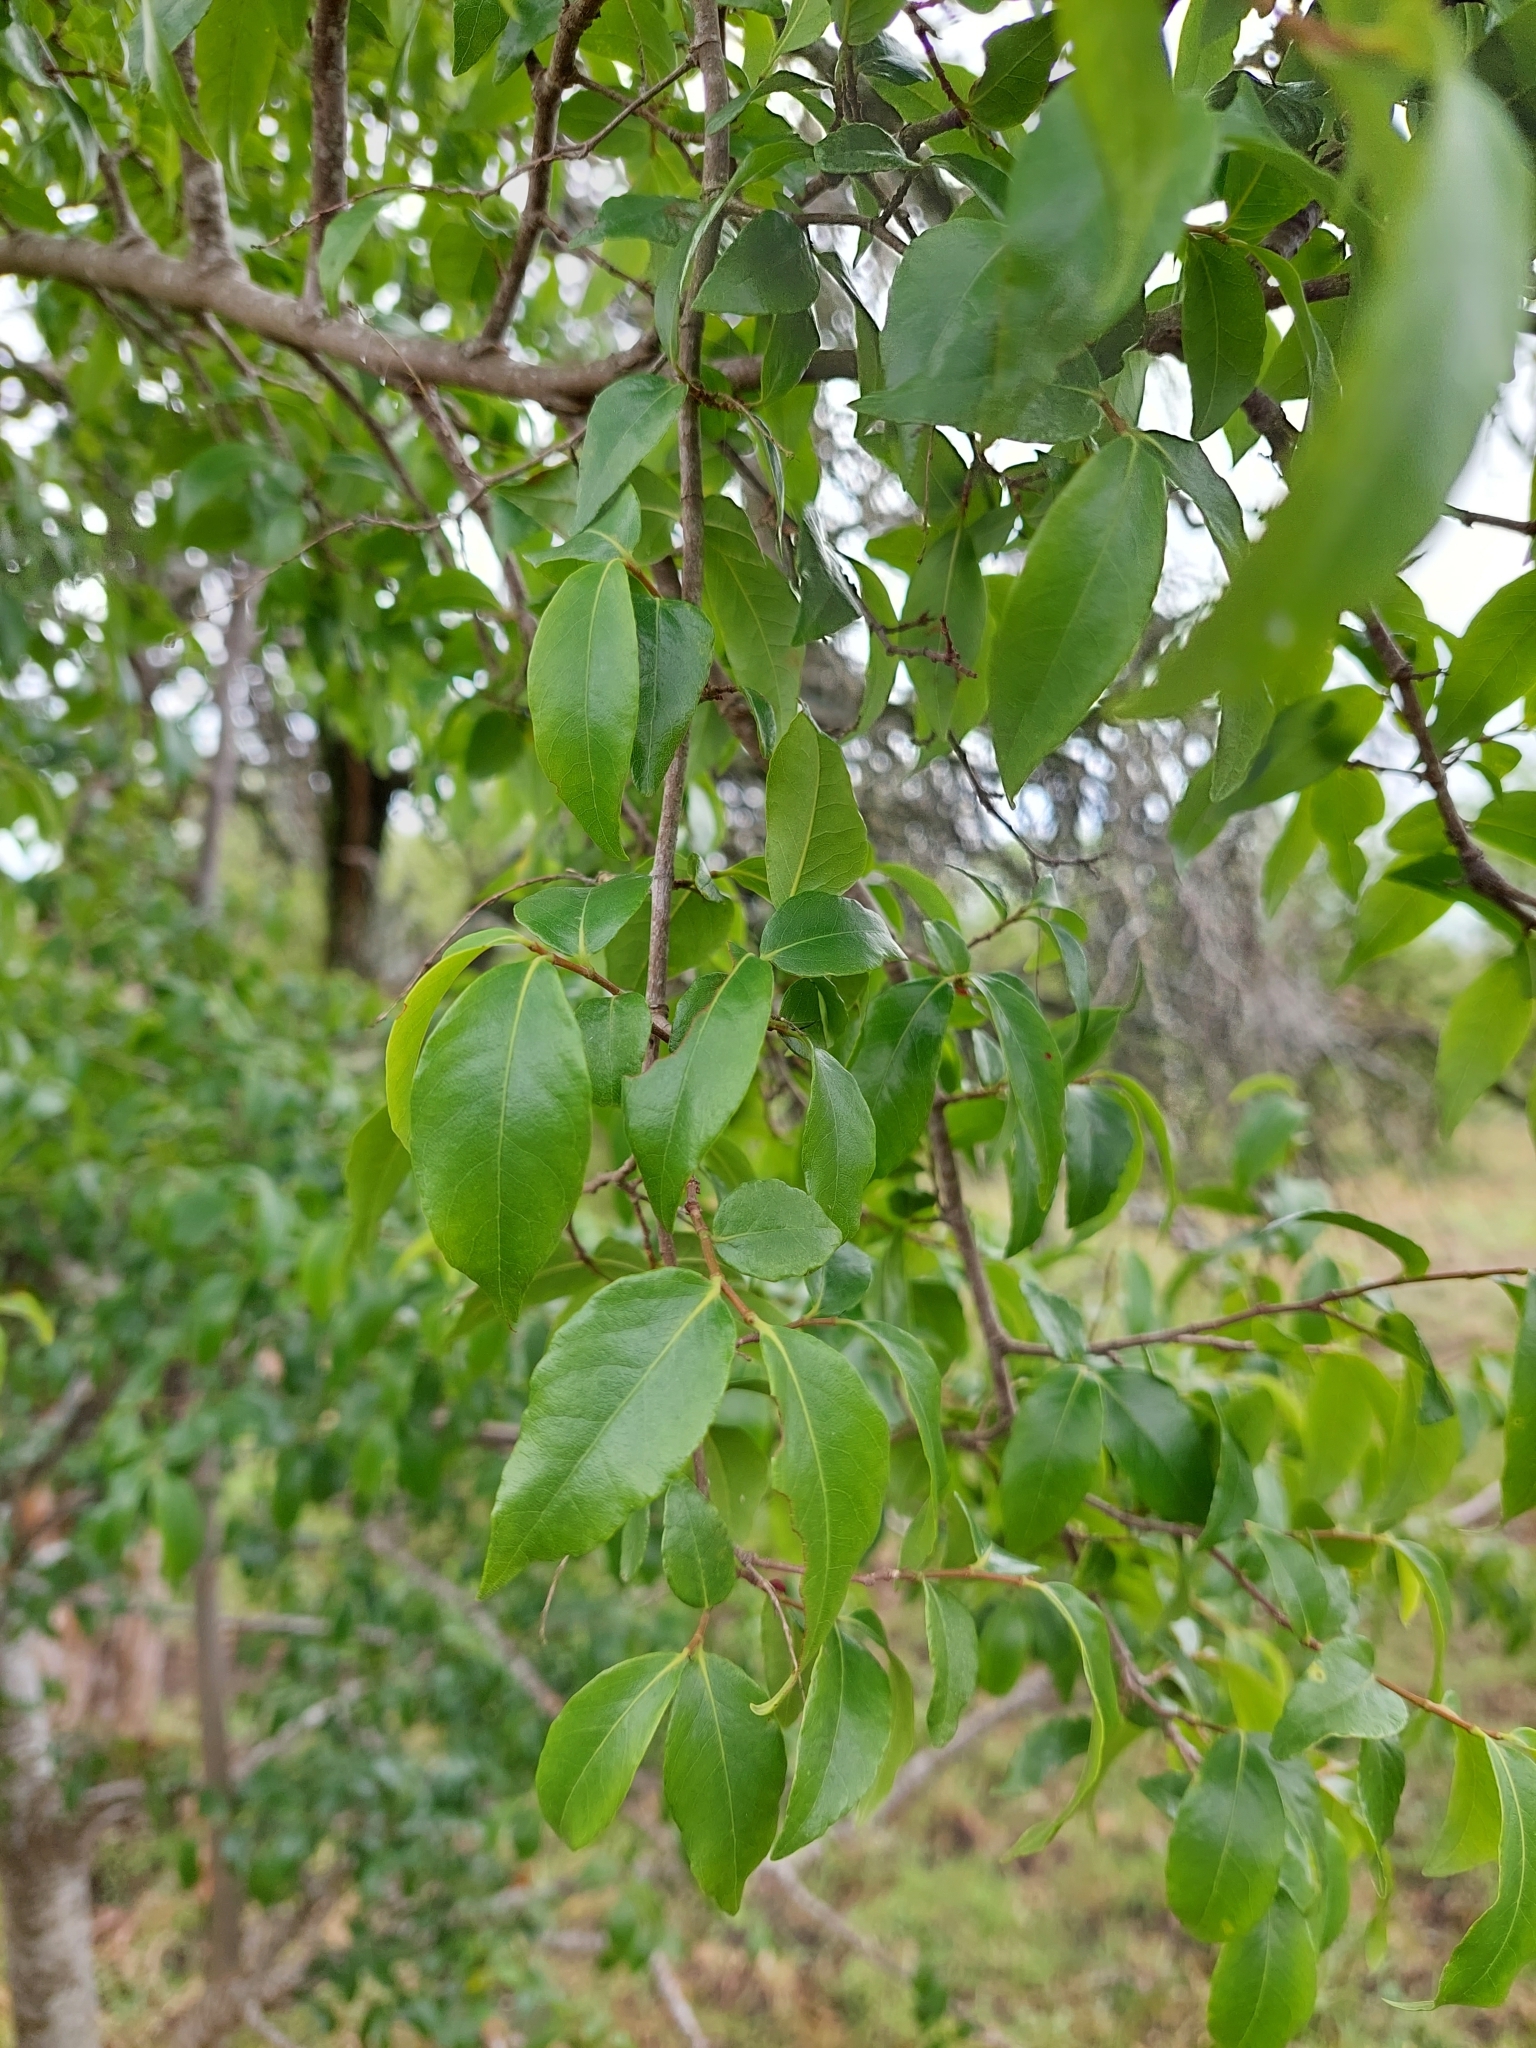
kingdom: Plantae
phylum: Tracheophyta
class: Magnoliopsida
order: Caryophyllales
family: Polygonaceae
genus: Ruprechtia
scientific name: Ruprechtia laxiflora
